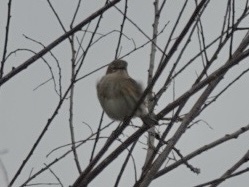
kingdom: Animalia
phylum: Chordata
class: Aves
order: Passeriformes
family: Parulidae
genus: Setophaga
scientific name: Setophaga coronata
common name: Myrtle warbler
